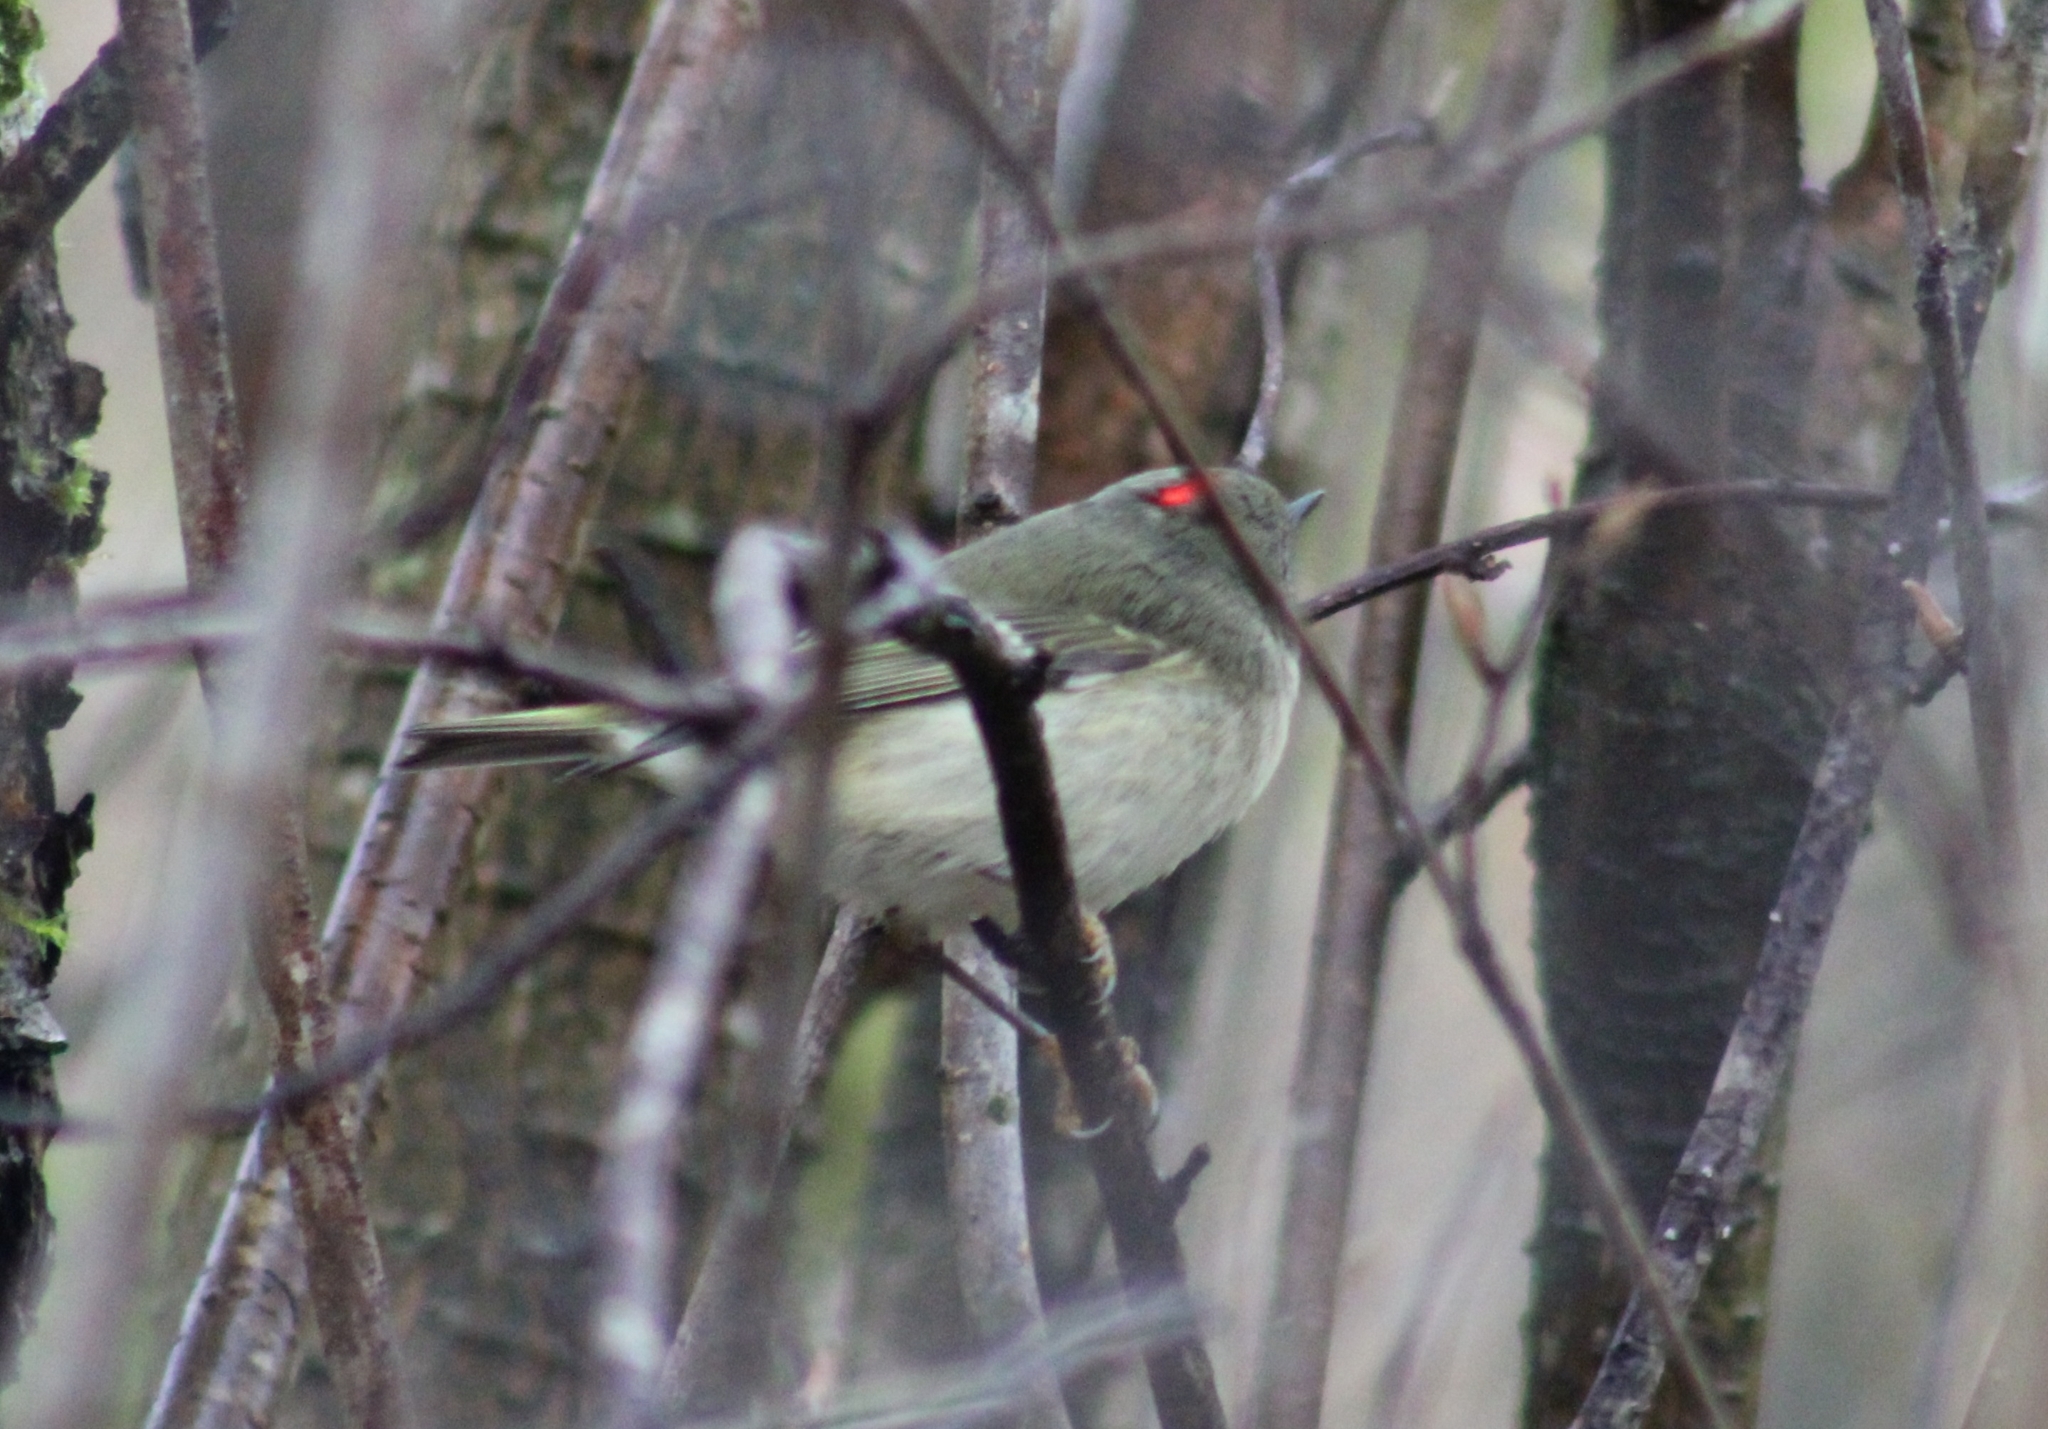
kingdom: Animalia
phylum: Chordata
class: Aves
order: Passeriformes
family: Regulidae
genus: Regulus
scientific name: Regulus calendula
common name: Ruby-crowned kinglet
